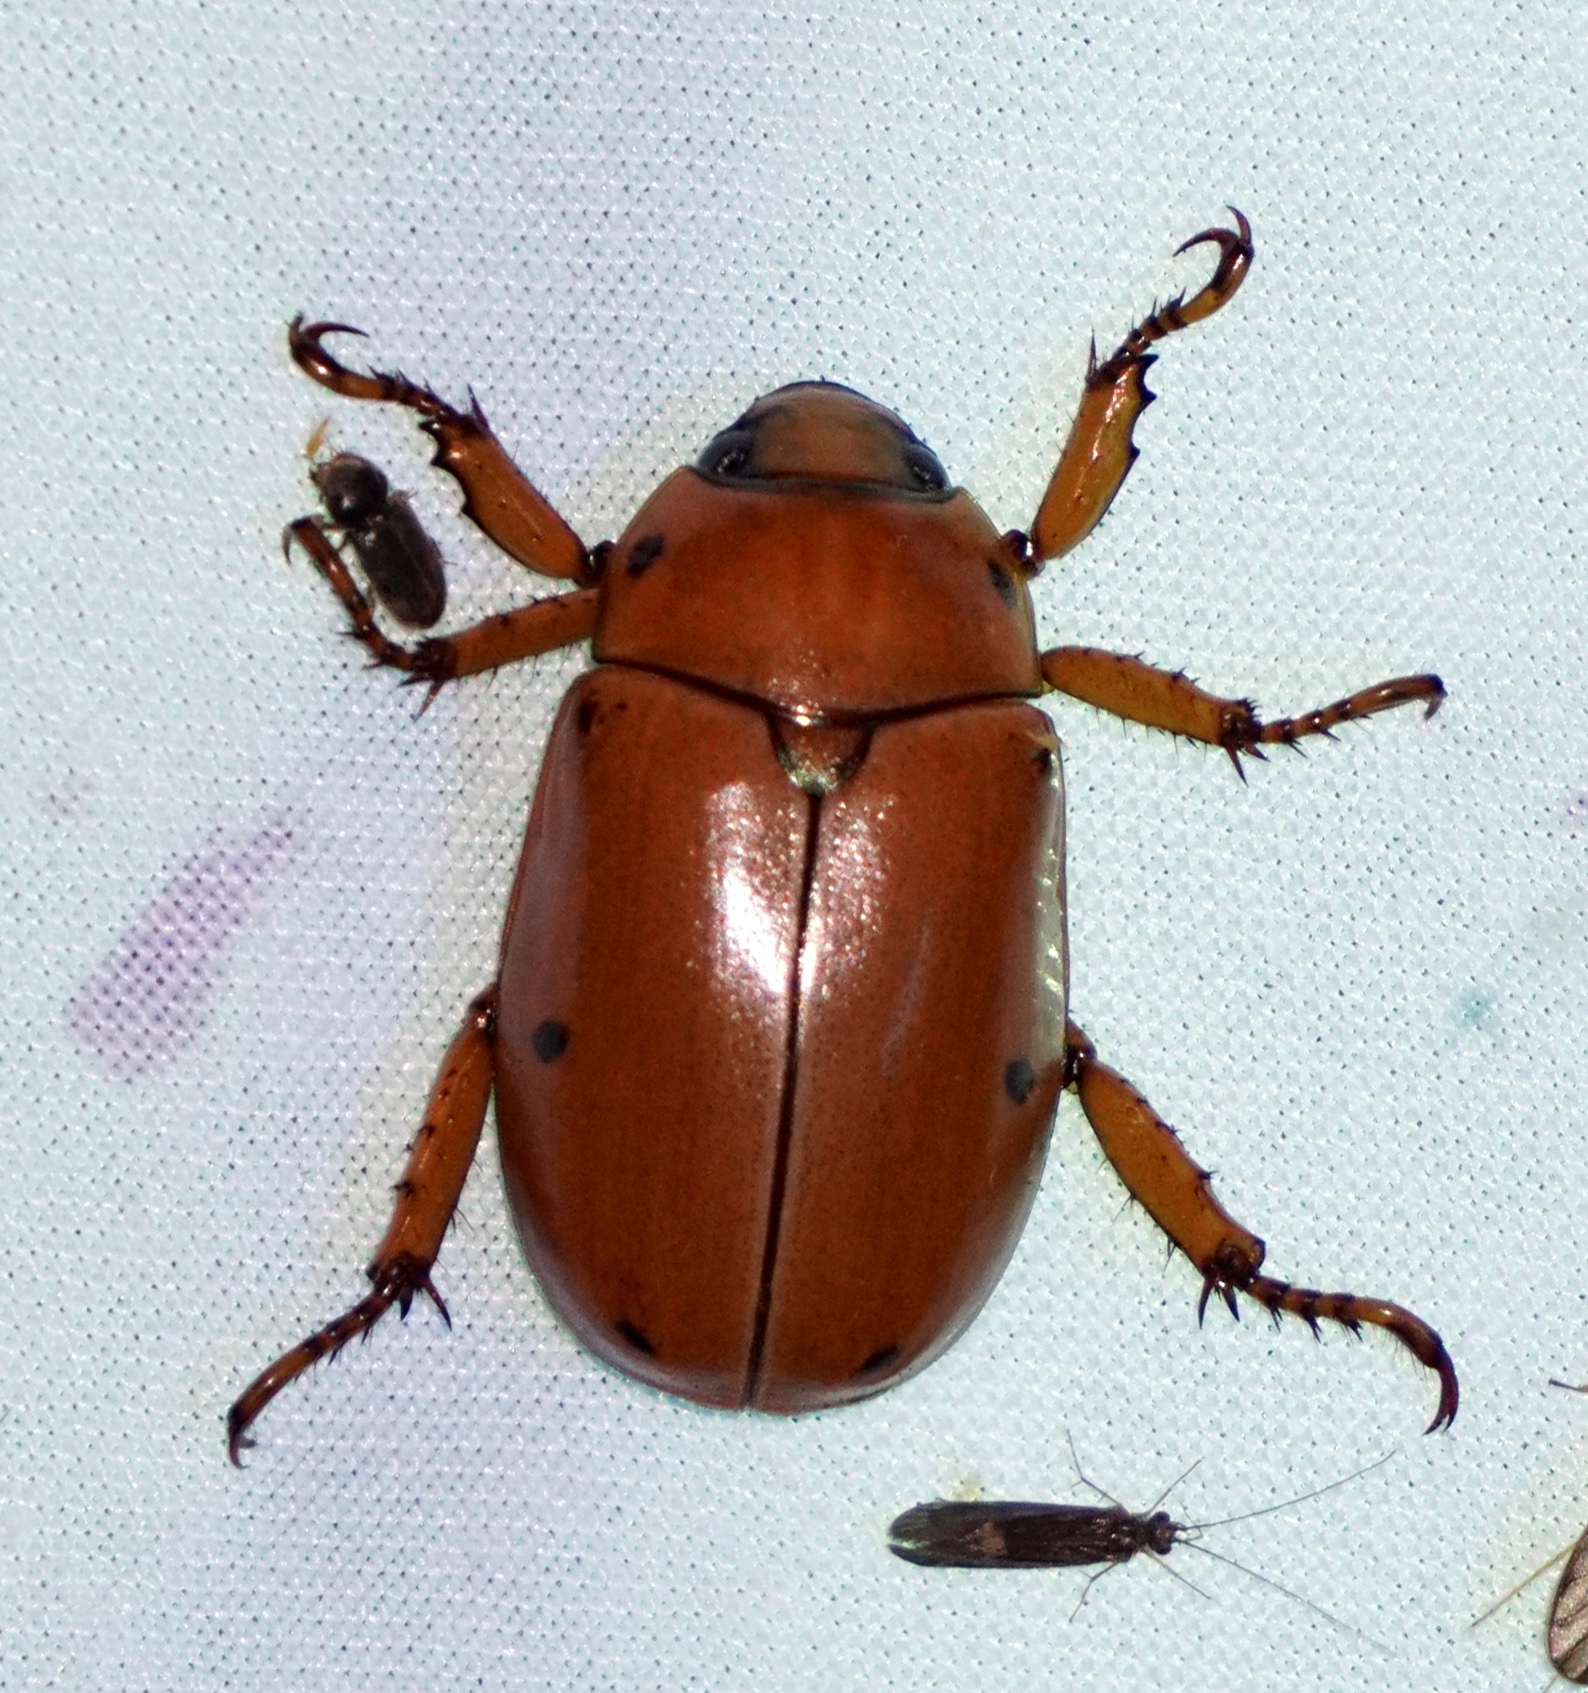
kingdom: Animalia
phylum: Arthropoda
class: Insecta
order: Coleoptera
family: Scarabaeidae
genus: Pelidnota
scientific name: Pelidnota punctata
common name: Grapevine beetle
